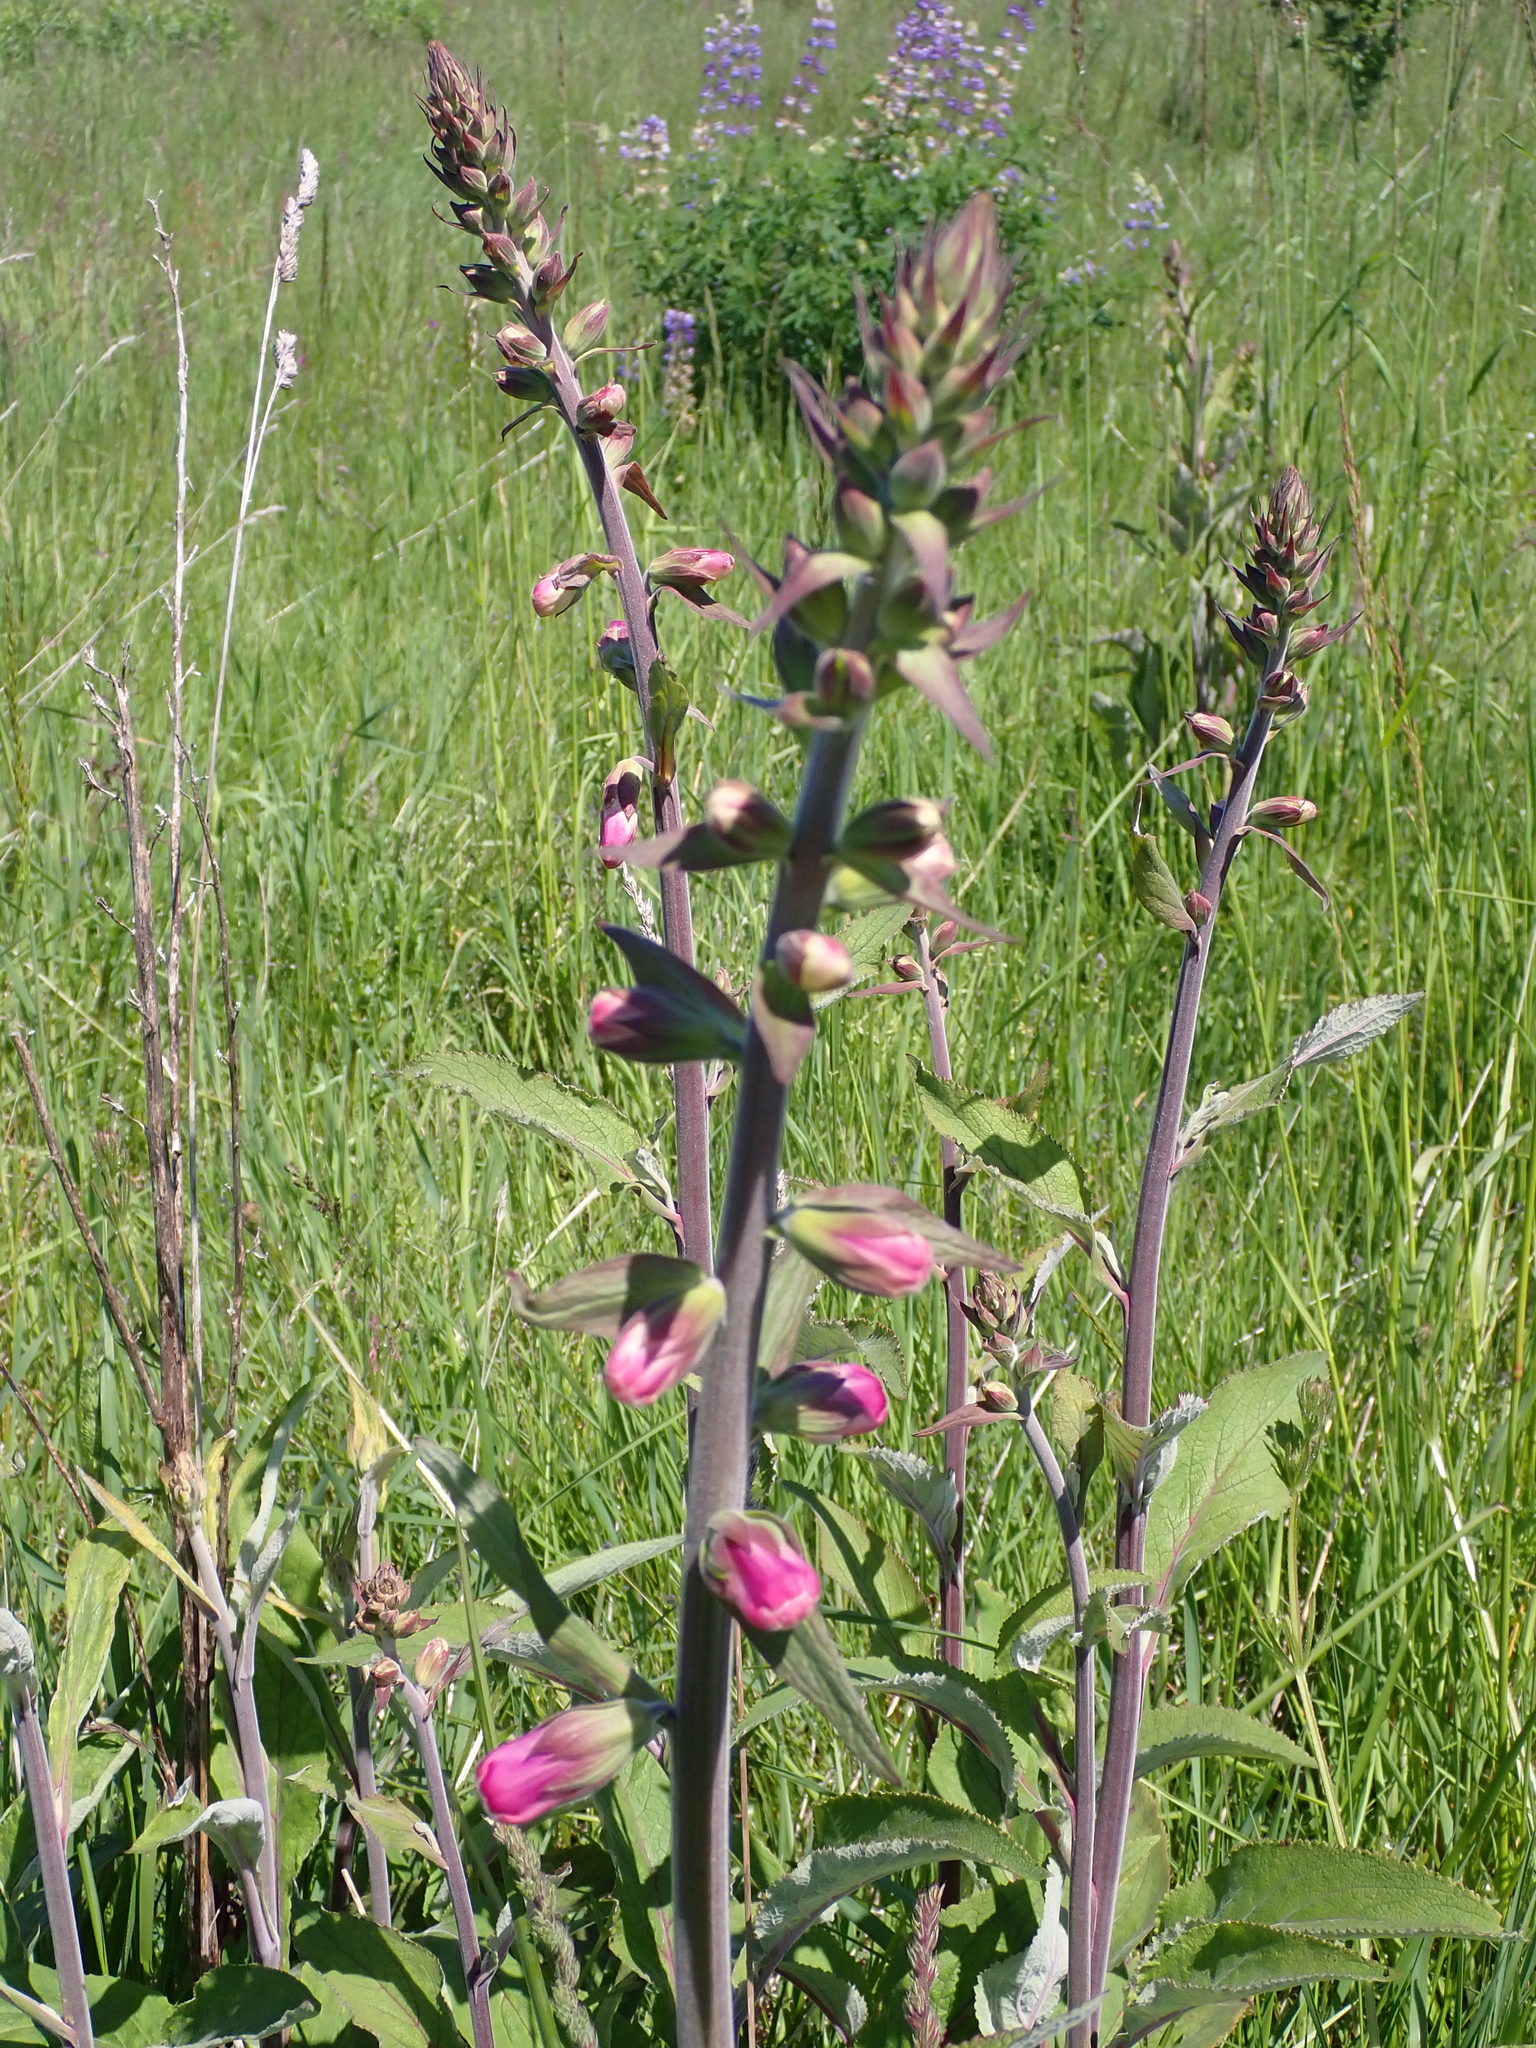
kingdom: Plantae
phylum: Tracheophyta
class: Magnoliopsida
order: Lamiales
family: Plantaginaceae
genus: Digitalis
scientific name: Digitalis purpurea
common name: Foxglove
